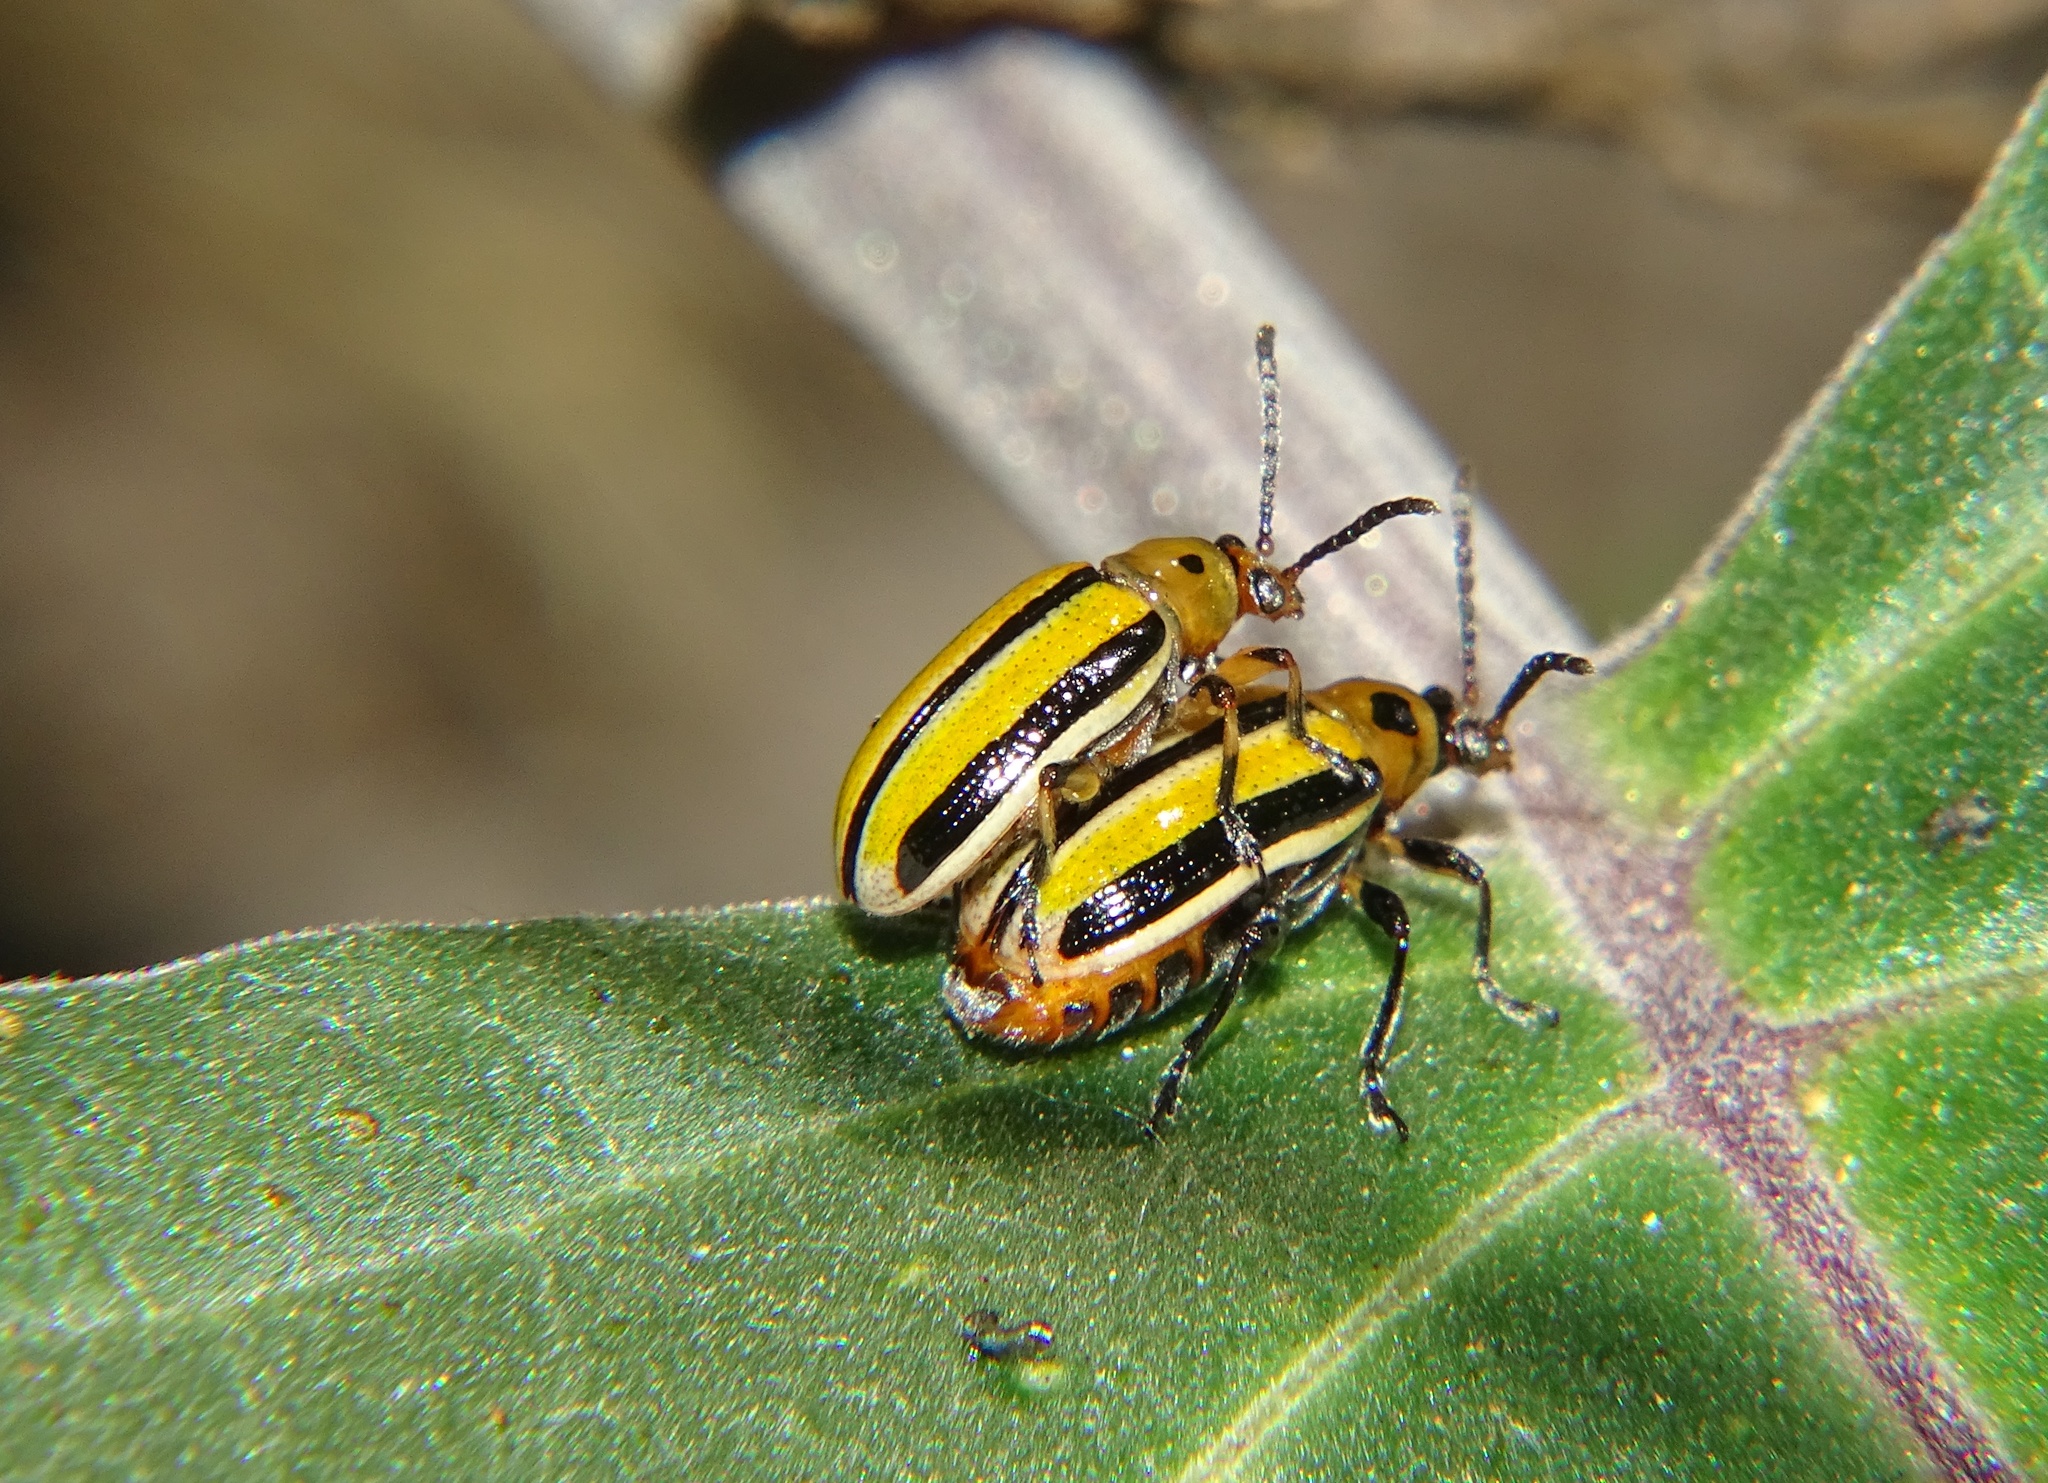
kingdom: Animalia
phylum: Arthropoda
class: Insecta
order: Coleoptera
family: Chrysomelidae
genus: Lema
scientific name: Lema daturaphila
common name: Leaf beetle
